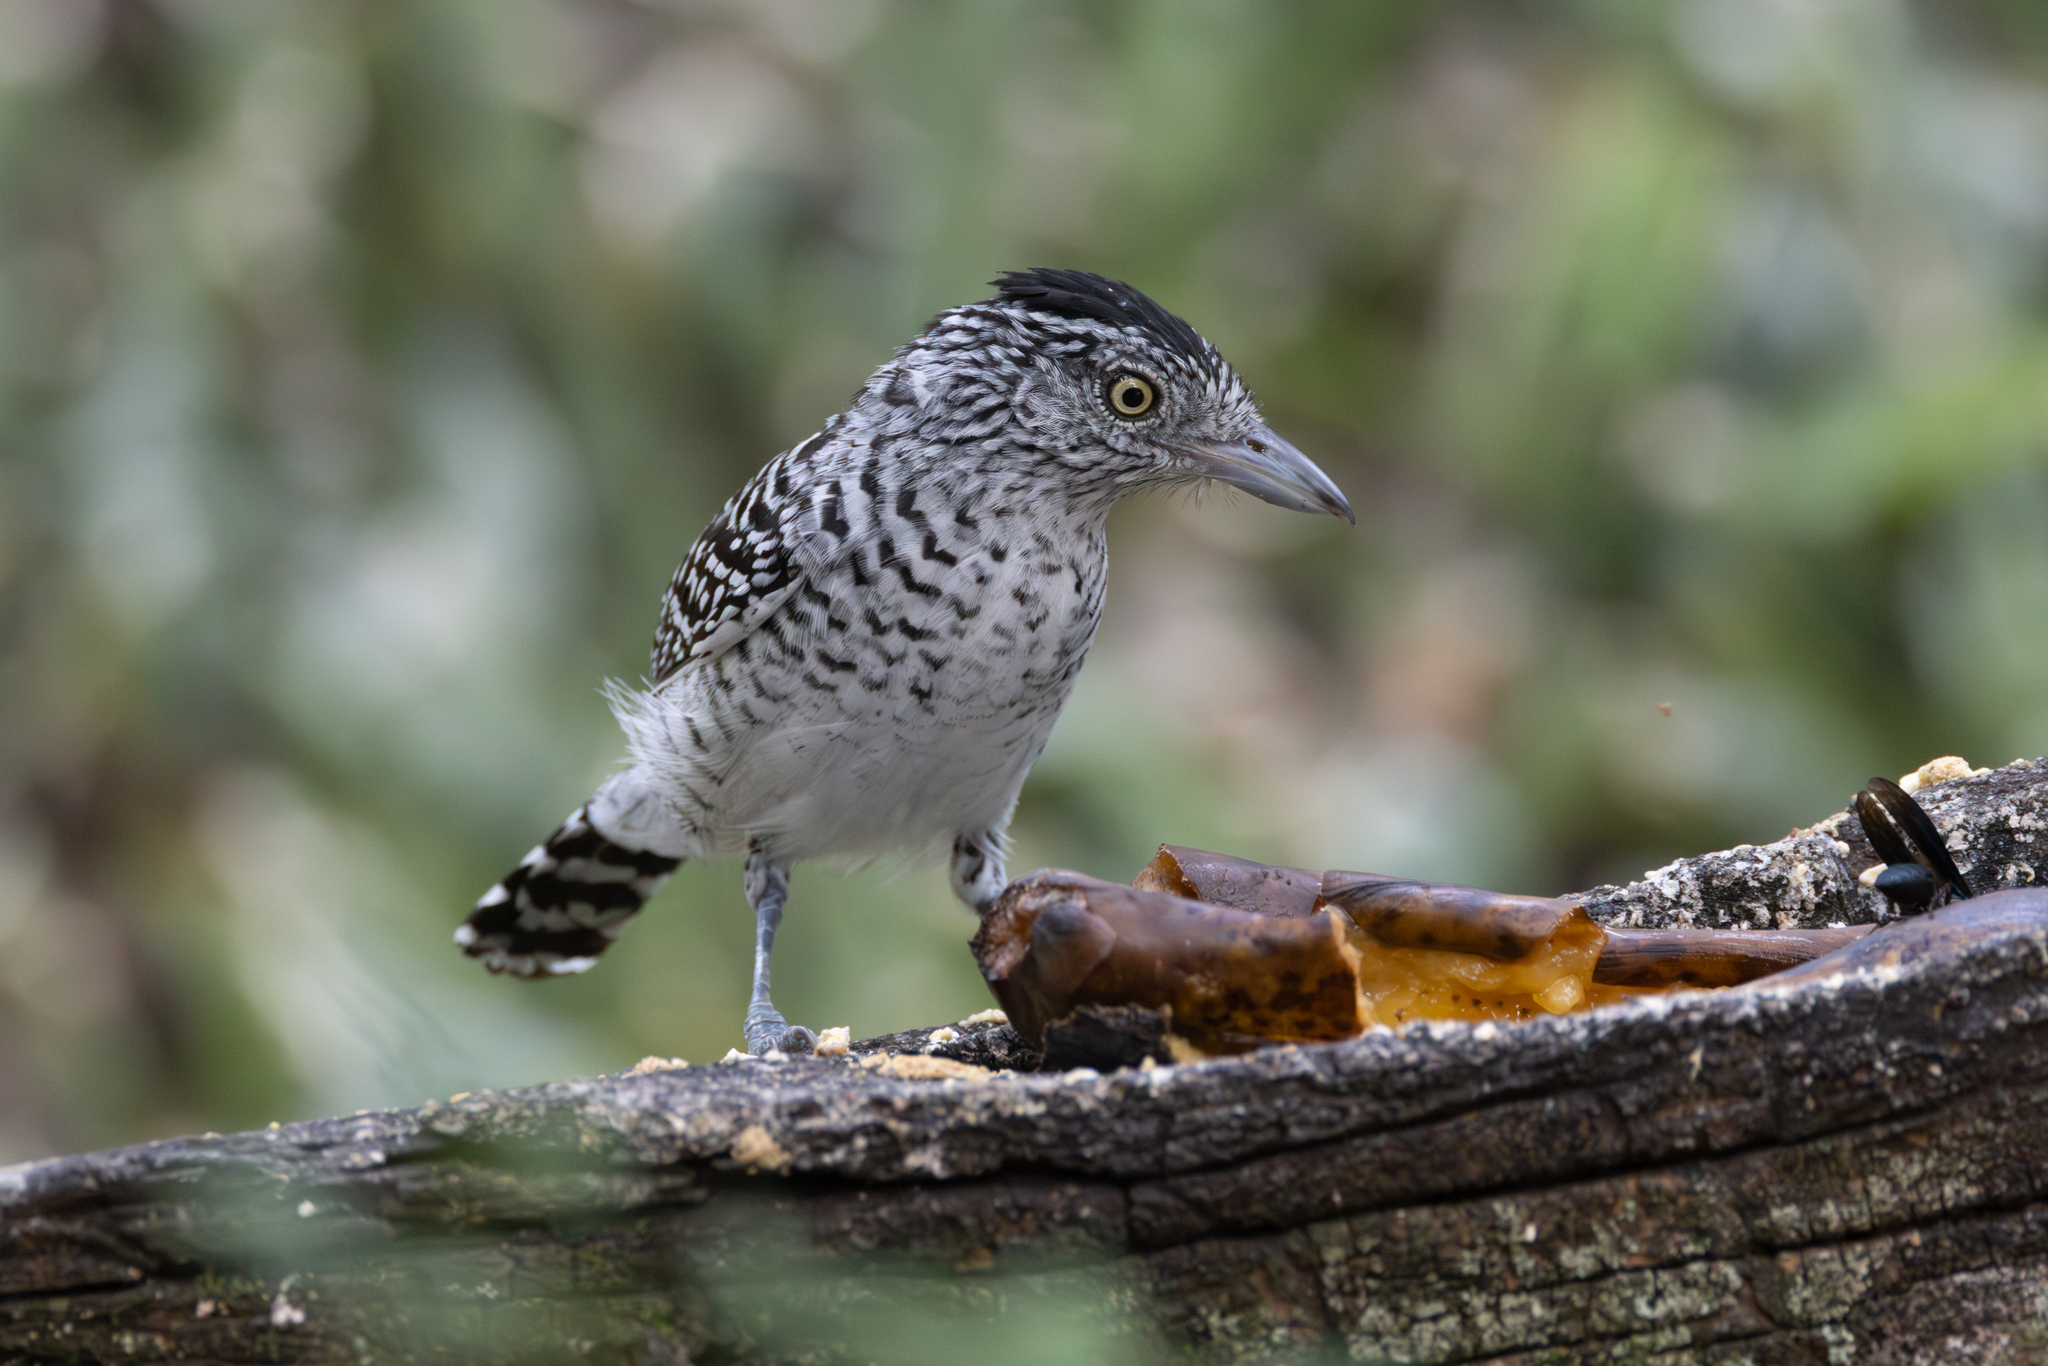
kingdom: Animalia
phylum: Chordata
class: Aves
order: Passeriformes
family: Thamnophilidae
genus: Thamnophilus
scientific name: Thamnophilus doliatus
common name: Barred antshrike
